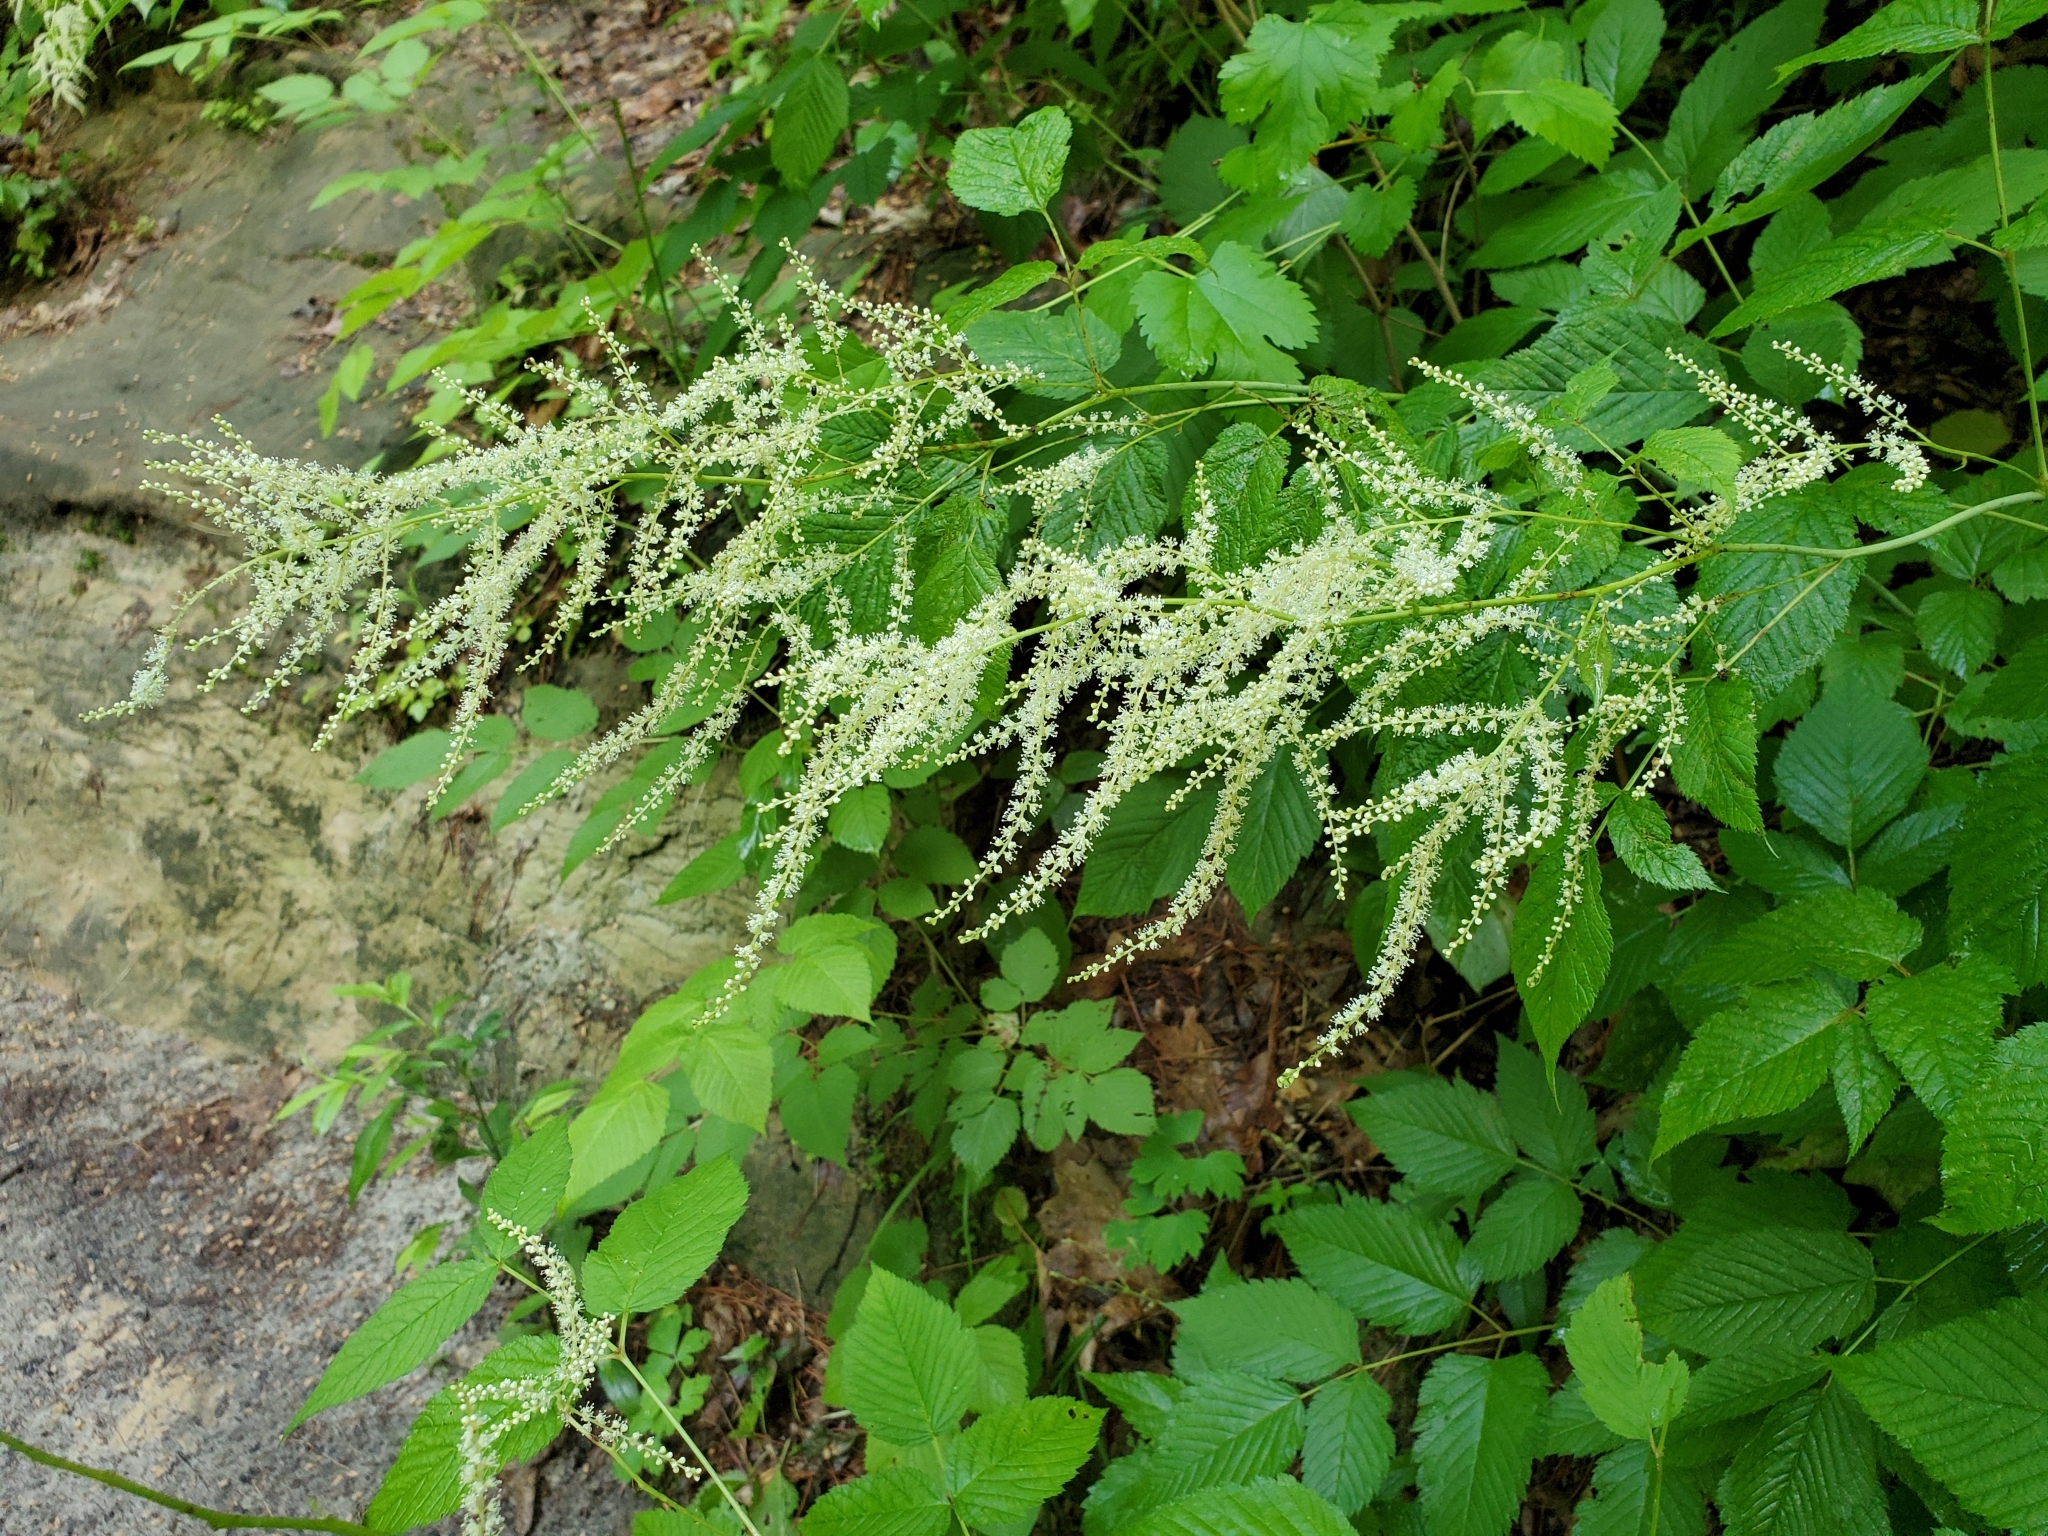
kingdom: Plantae
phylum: Tracheophyta
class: Magnoliopsida
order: Rosales
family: Rosaceae
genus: Aruncus
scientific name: Aruncus dioicus
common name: Buck's-beard
